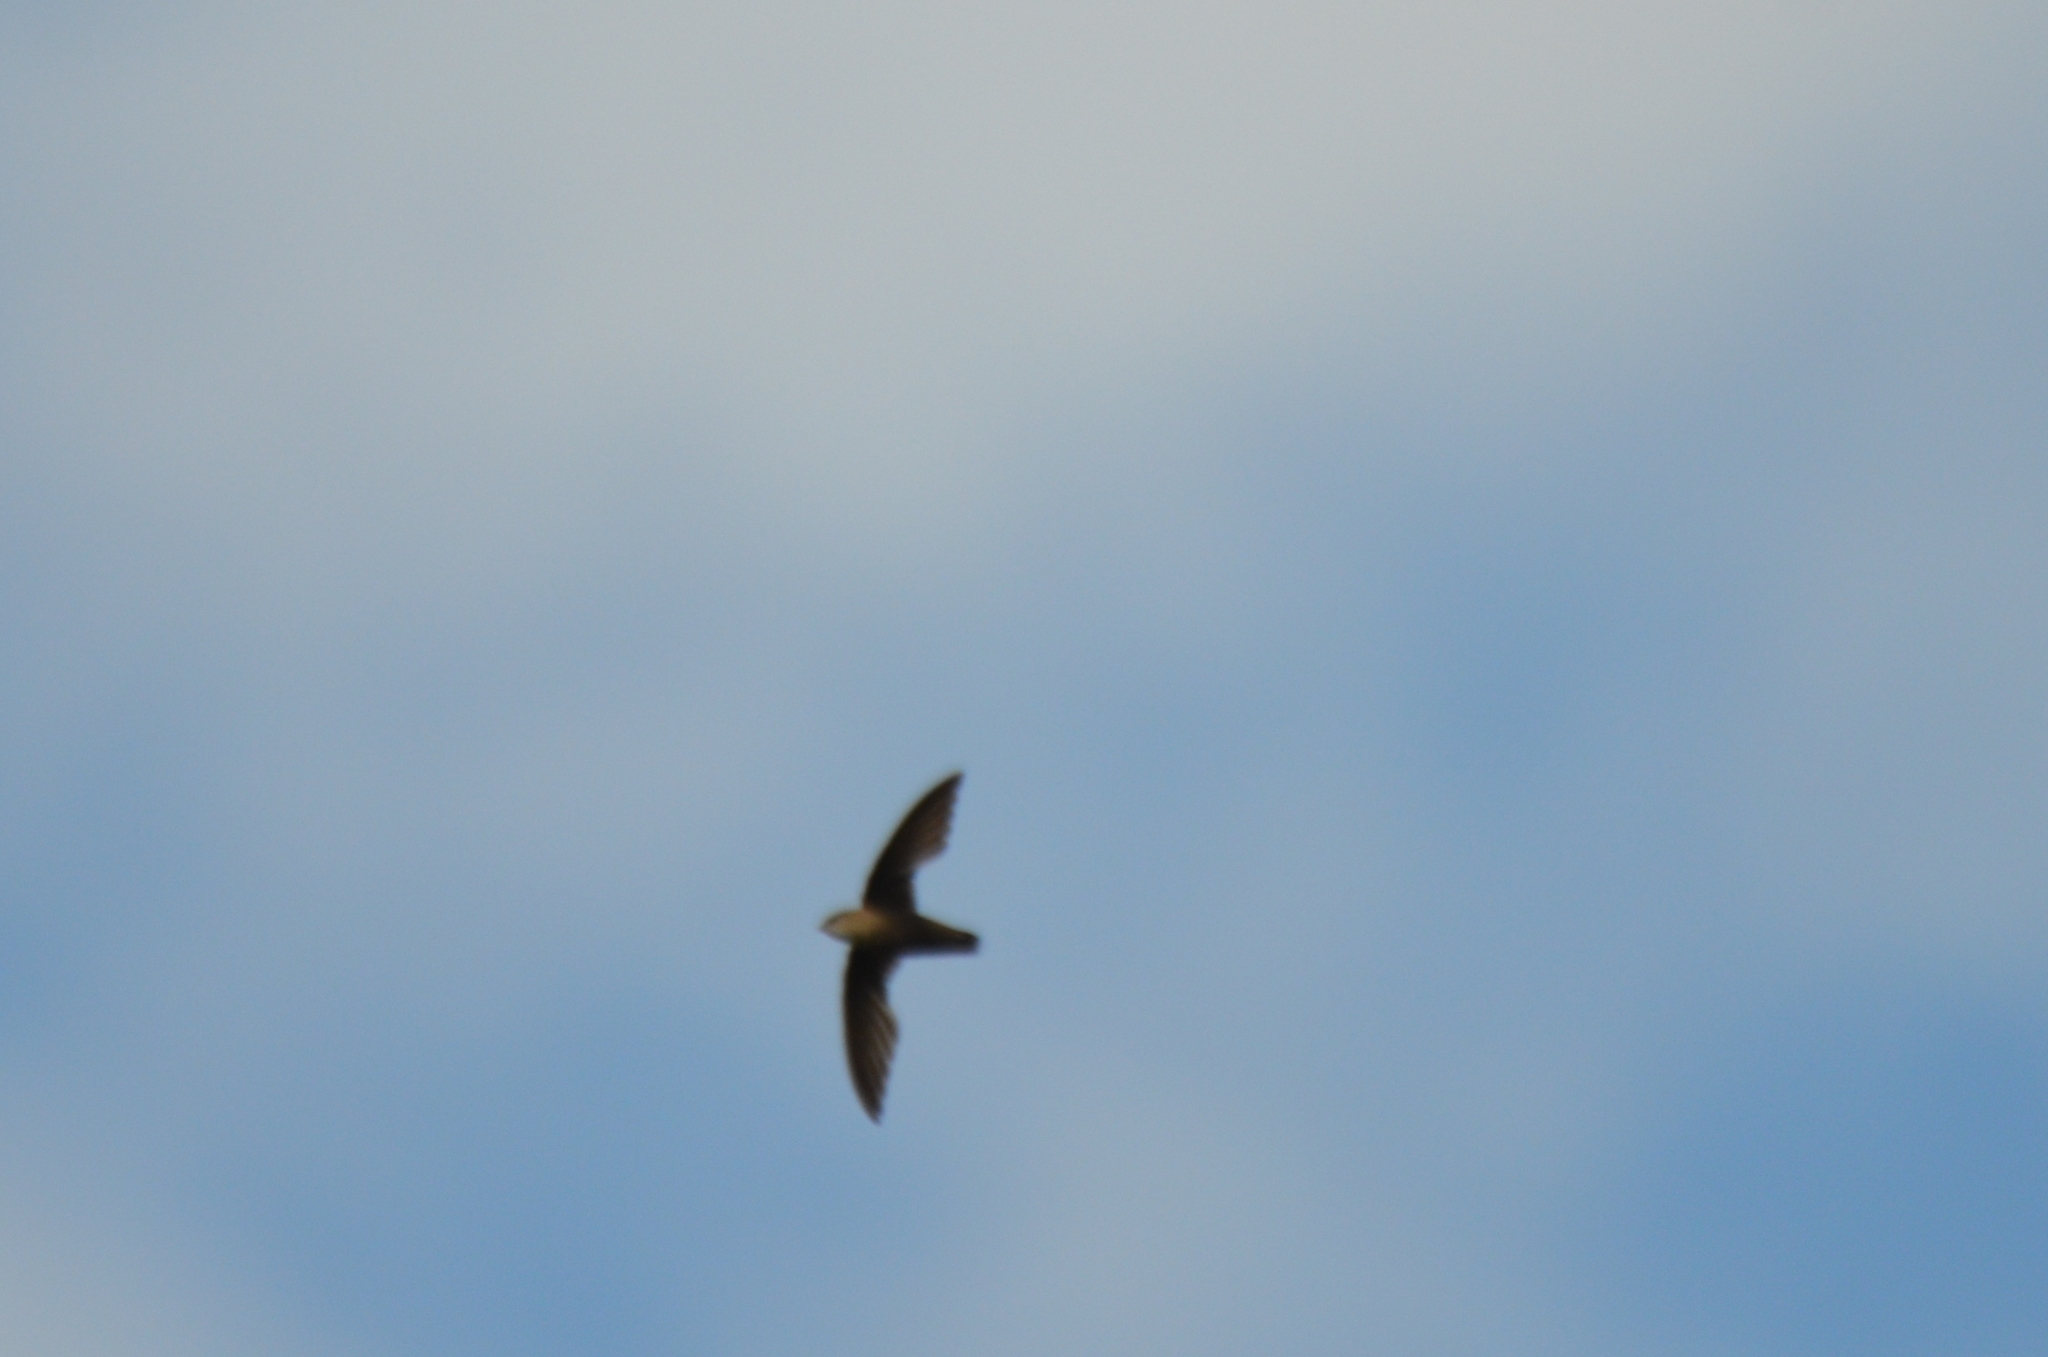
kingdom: Animalia
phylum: Chordata
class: Aves
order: Apodiformes
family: Apodidae
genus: Chaetura
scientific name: Chaetura pelagica
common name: Chimney swift
